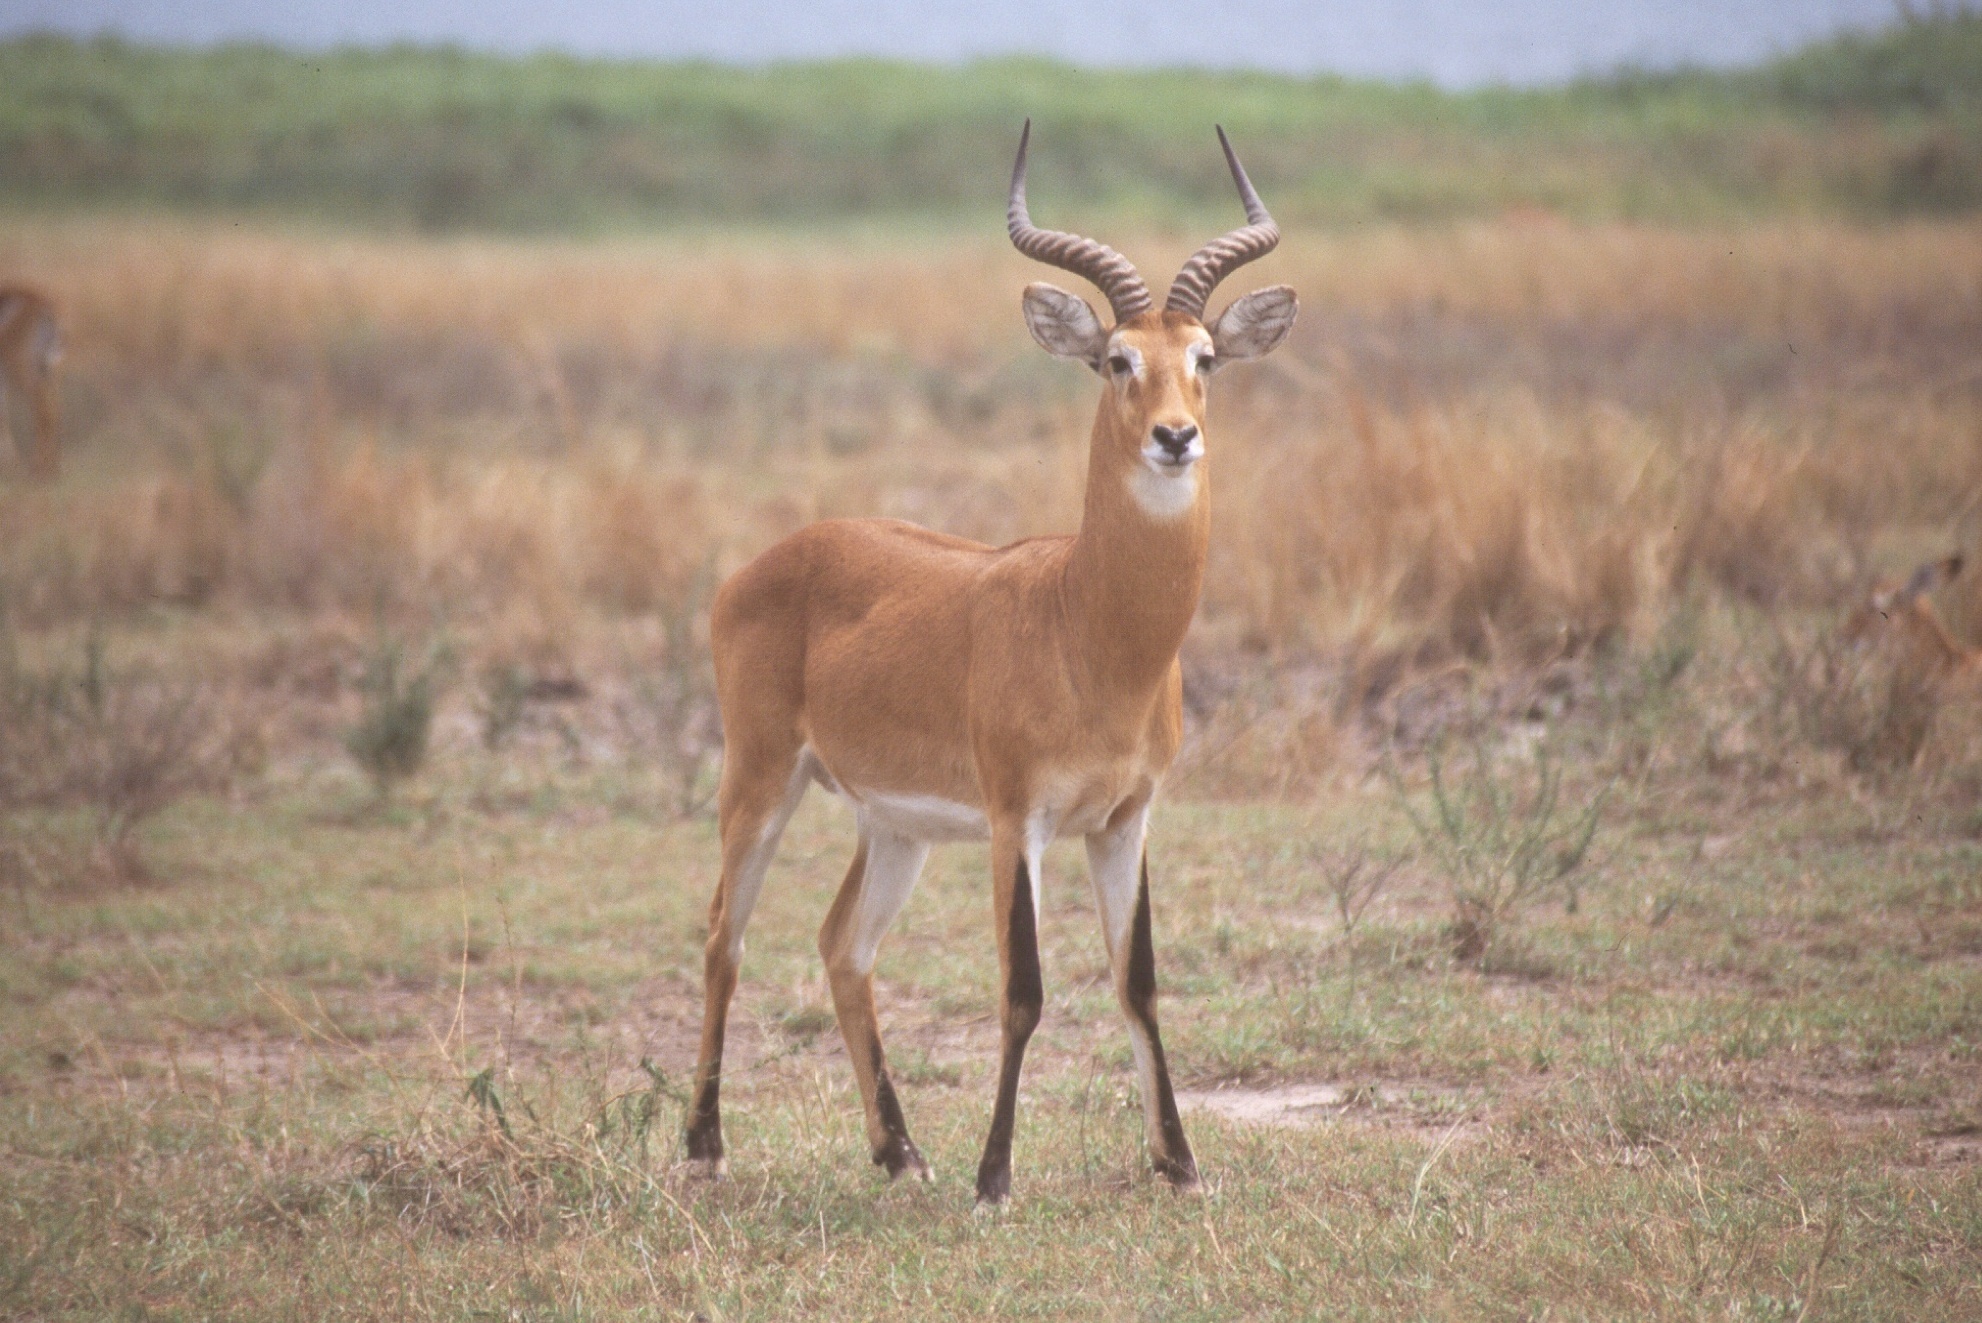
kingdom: Animalia
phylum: Chordata
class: Mammalia
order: Artiodactyla
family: Bovidae
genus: Kobus
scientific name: Kobus kob
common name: Kob
